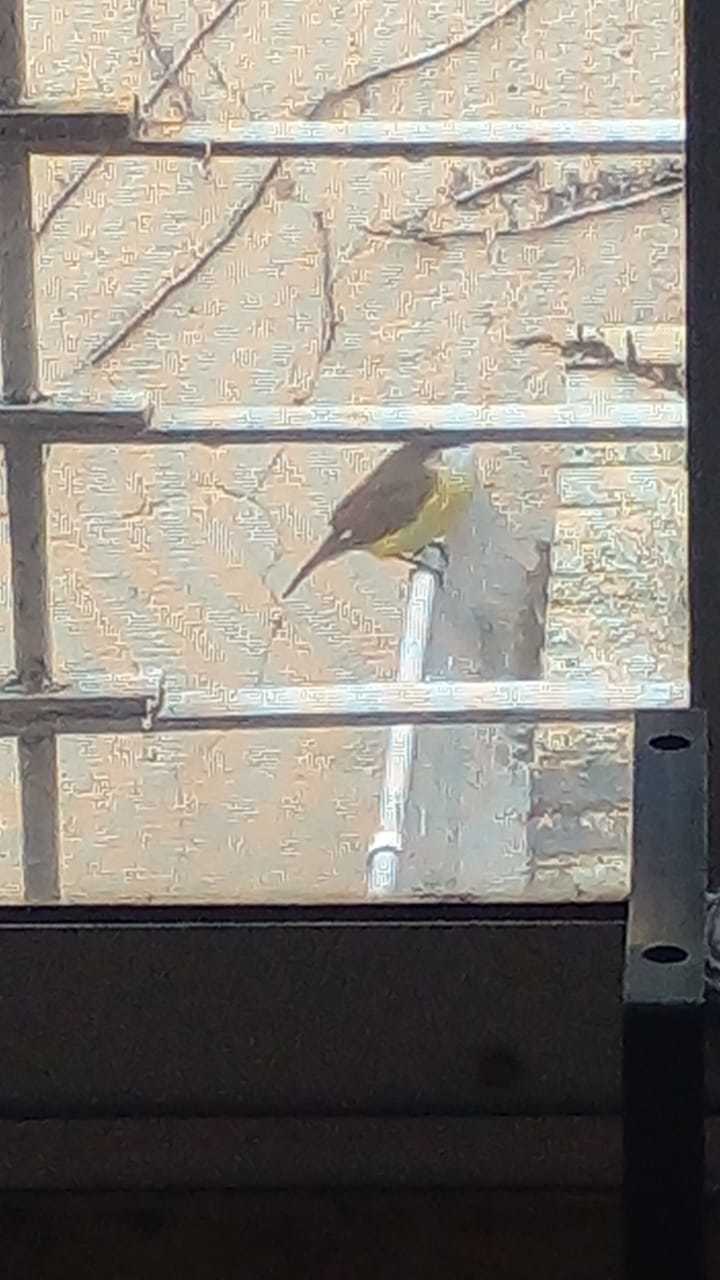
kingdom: Animalia
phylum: Chordata
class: Aves
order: Passeriformes
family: Tyrannidae
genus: Pitangus
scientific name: Pitangus sulphuratus
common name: Great kiskadee
